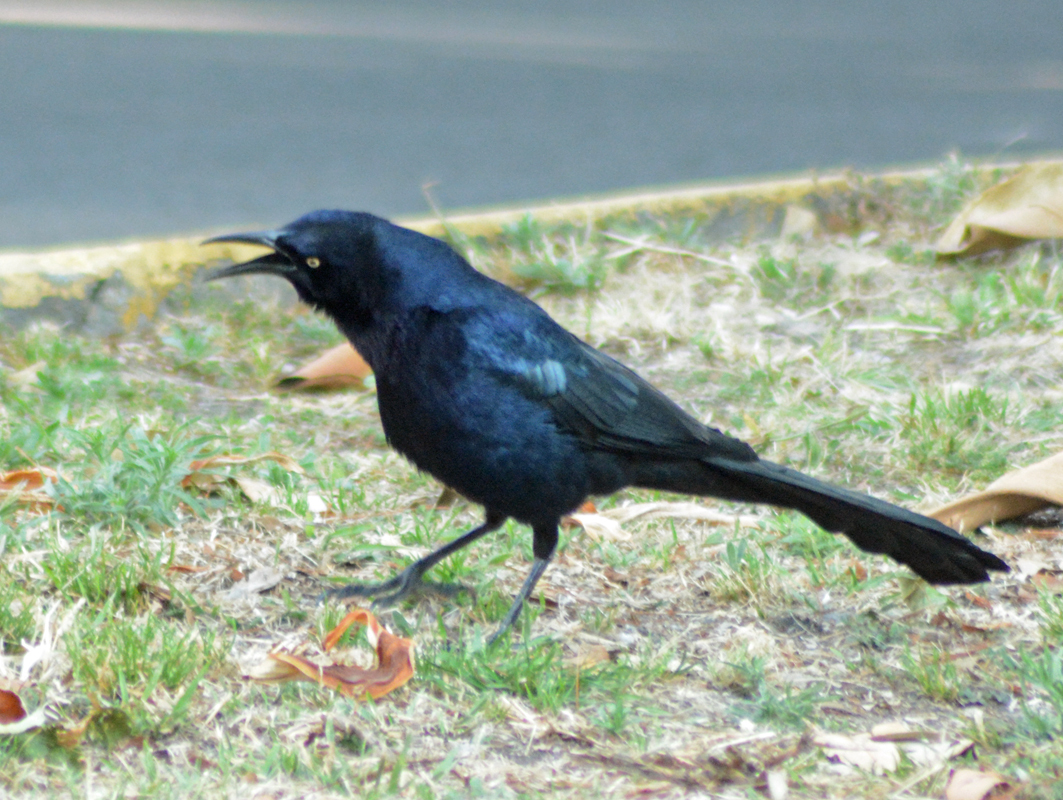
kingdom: Animalia
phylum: Chordata
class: Aves
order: Passeriformes
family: Icteridae
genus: Quiscalus
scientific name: Quiscalus mexicanus
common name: Great-tailed grackle
